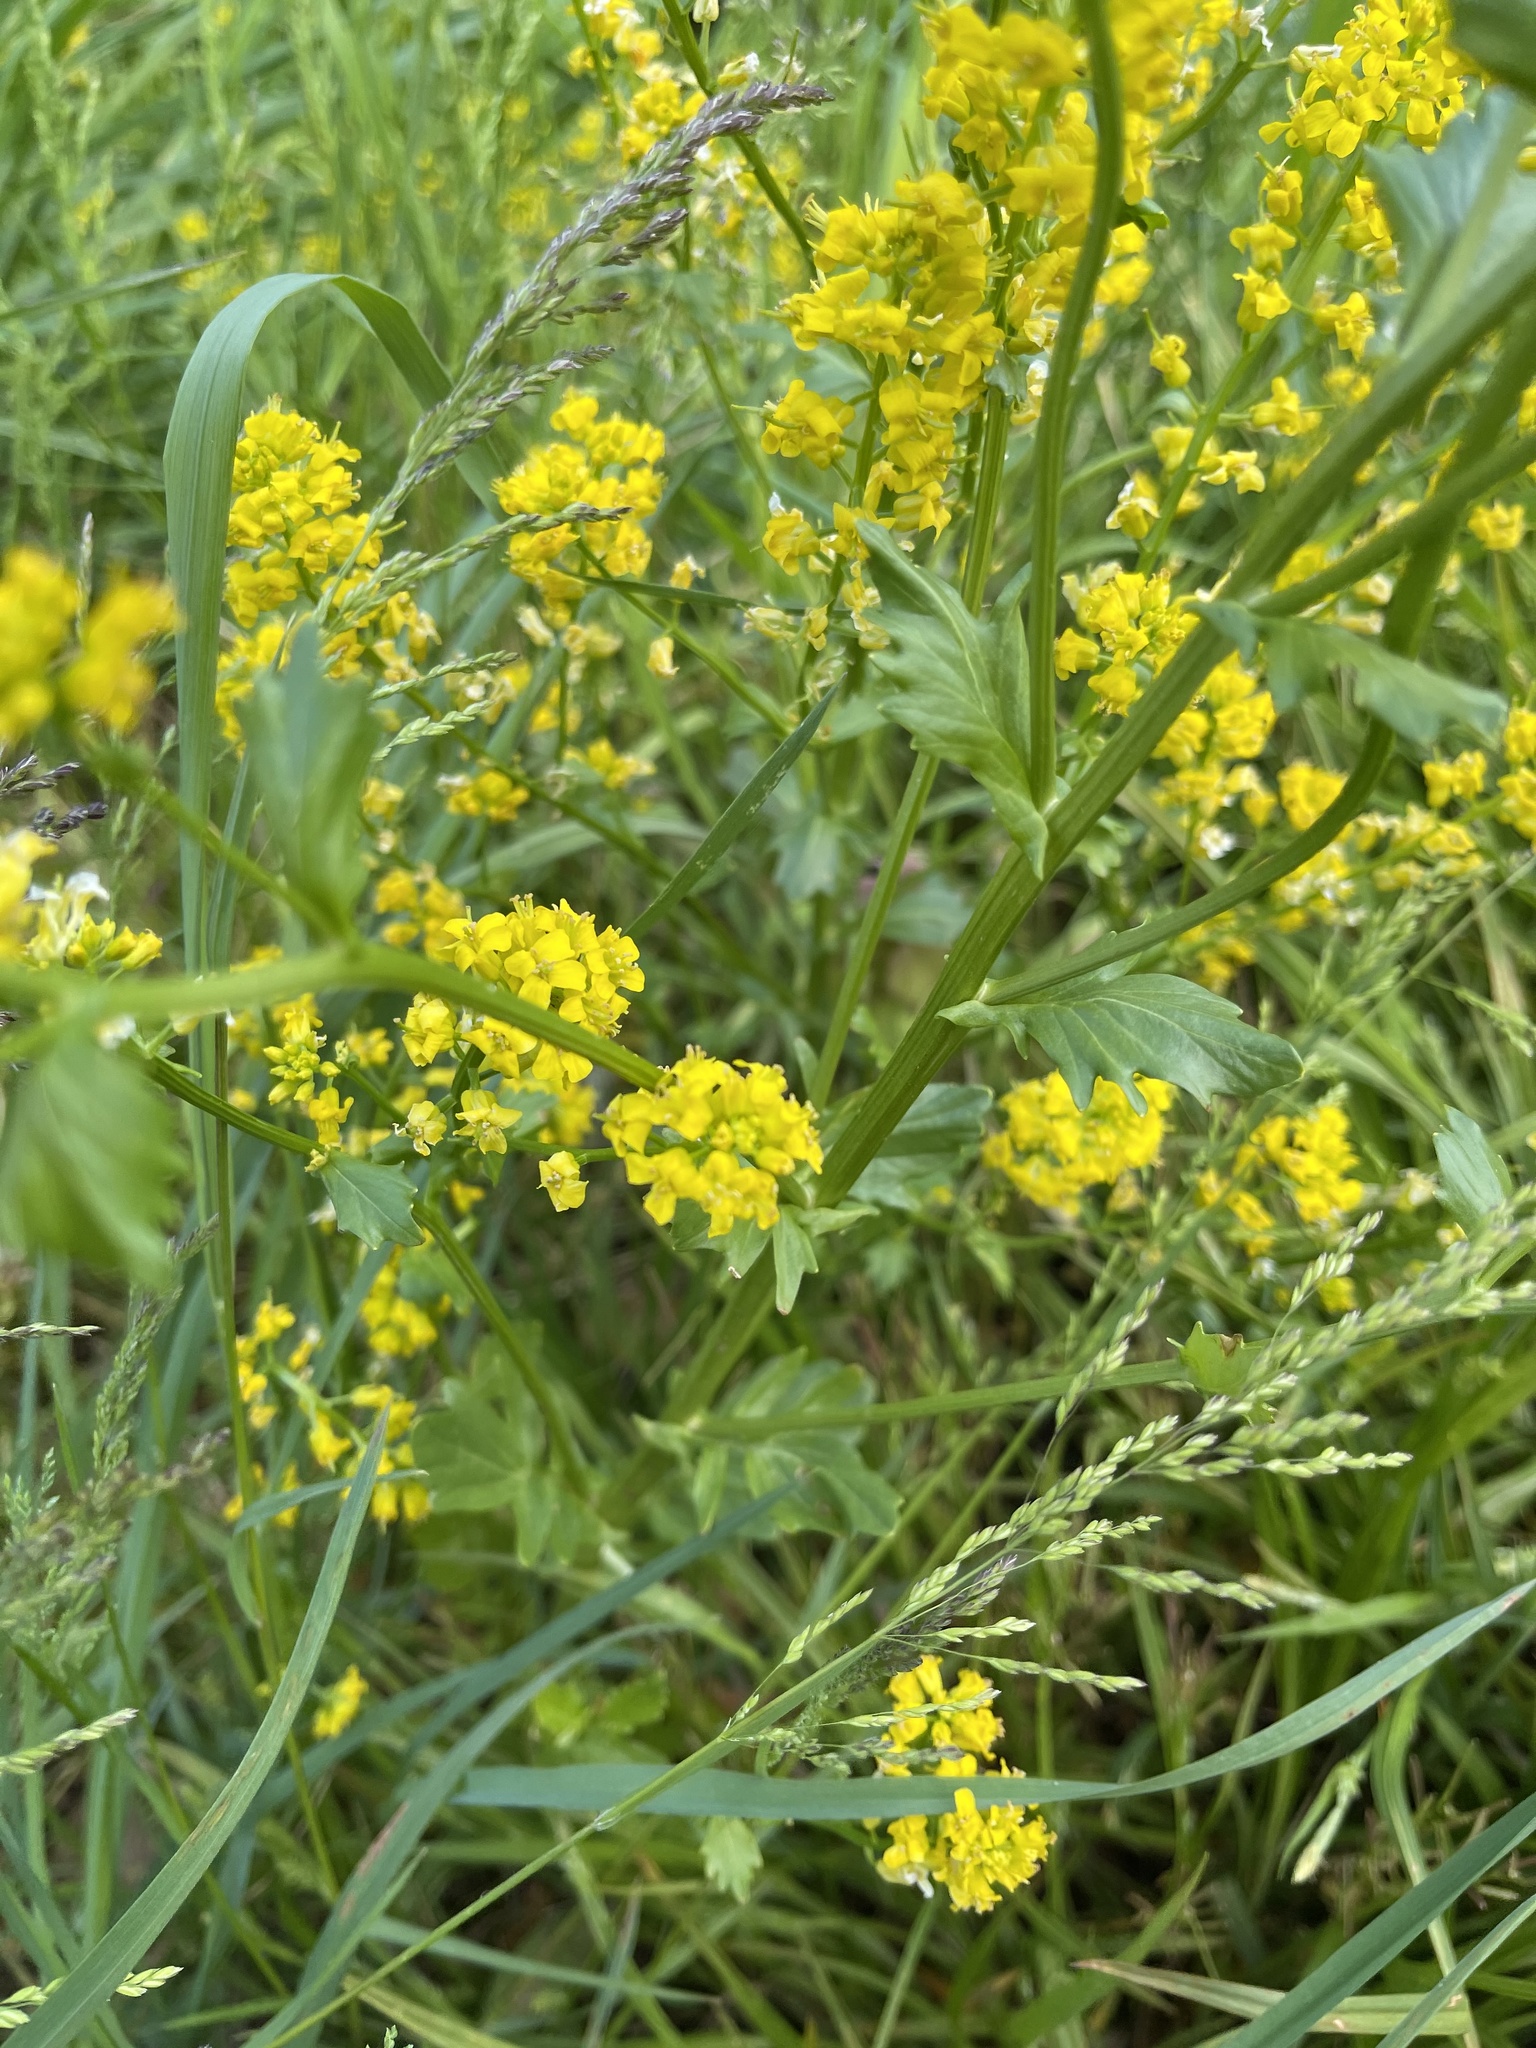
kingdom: Plantae
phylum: Tracheophyta
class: Magnoliopsida
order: Brassicales
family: Brassicaceae
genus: Barbarea
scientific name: Barbarea vulgaris
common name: Cressy-greens
